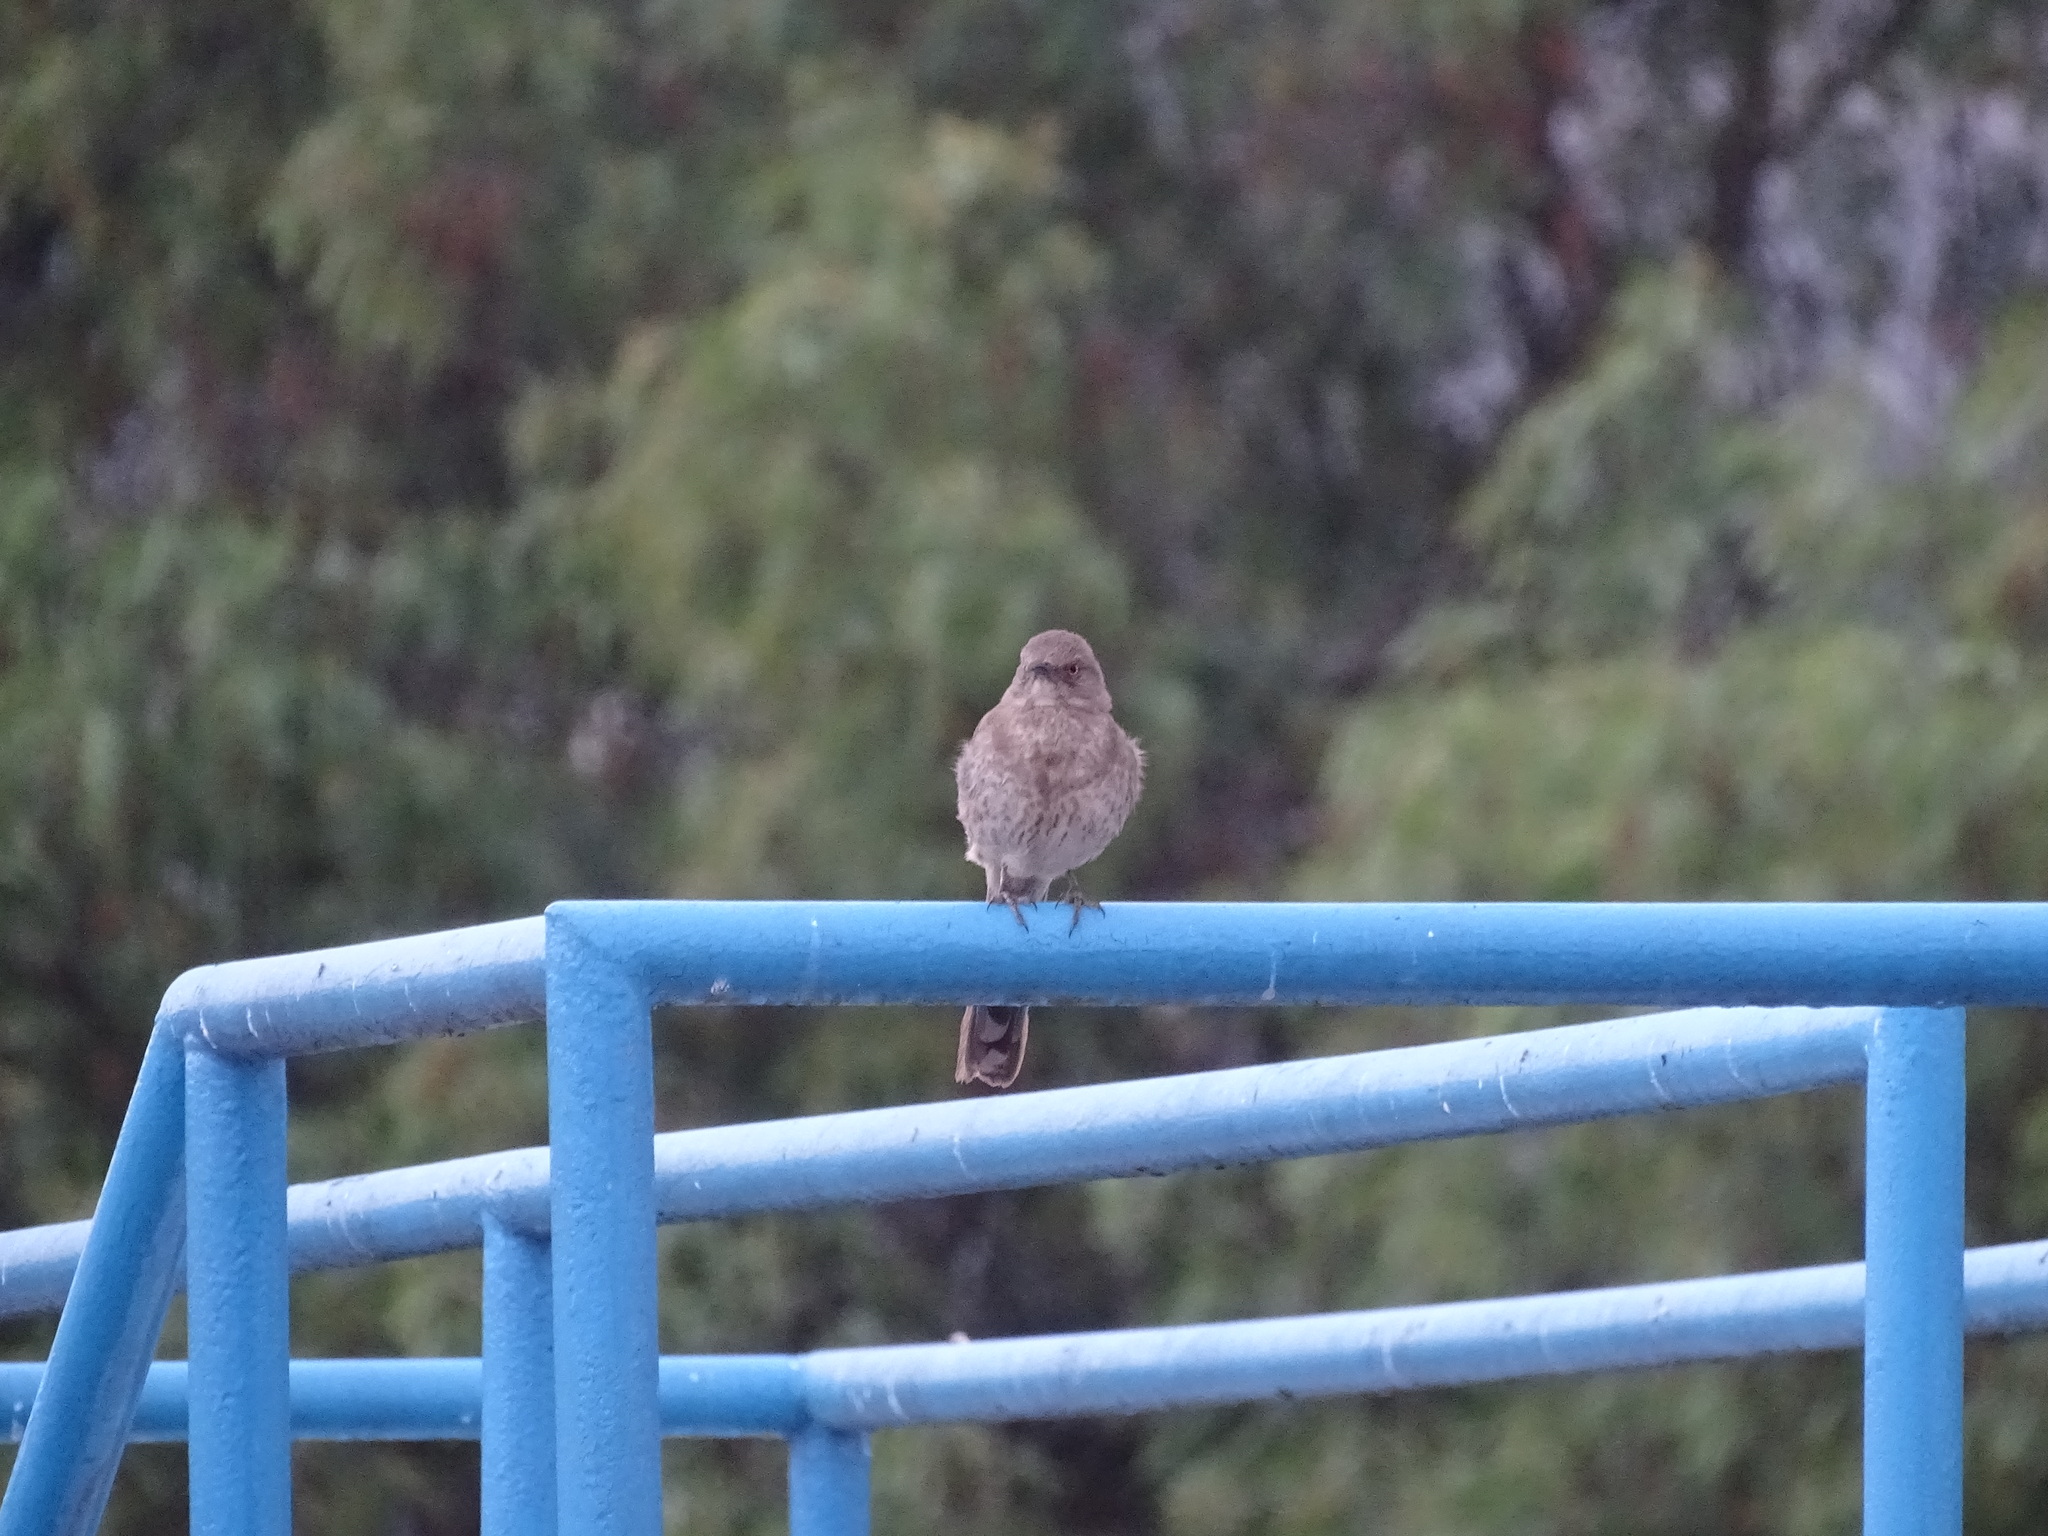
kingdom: Animalia
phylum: Chordata
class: Aves
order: Passeriformes
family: Mimidae
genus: Toxostoma
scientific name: Toxostoma curvirostre
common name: Curve-billed thrasher
